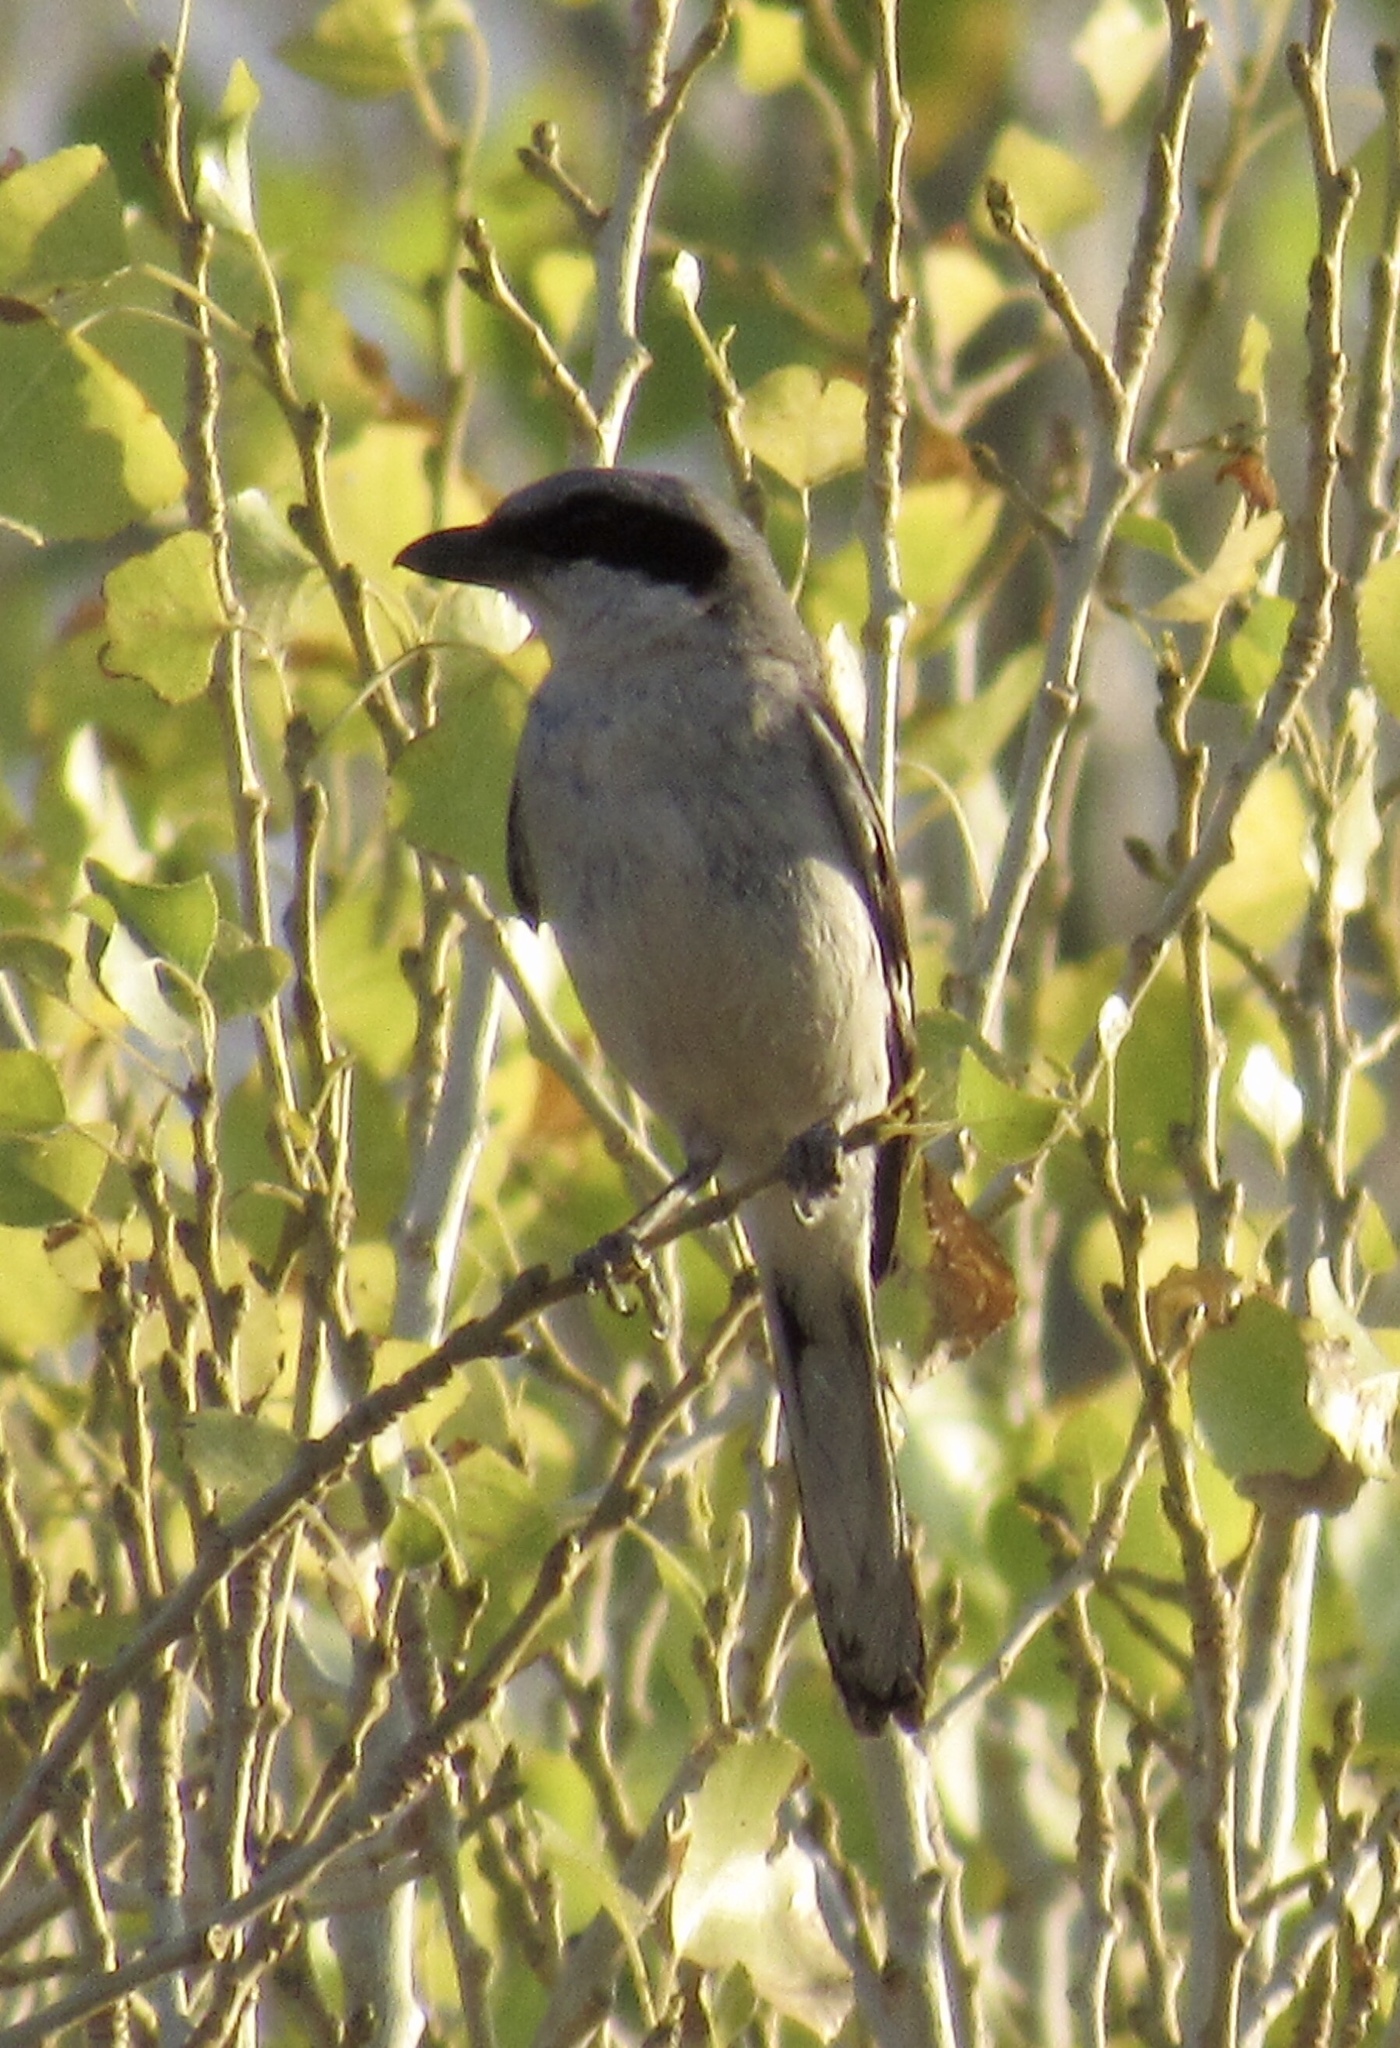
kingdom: Animalia
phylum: Chordata
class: Aves
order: Passeriformes
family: Laniidae
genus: Lanius
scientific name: Lanius ludovicianus
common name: Loggerhead shrike
